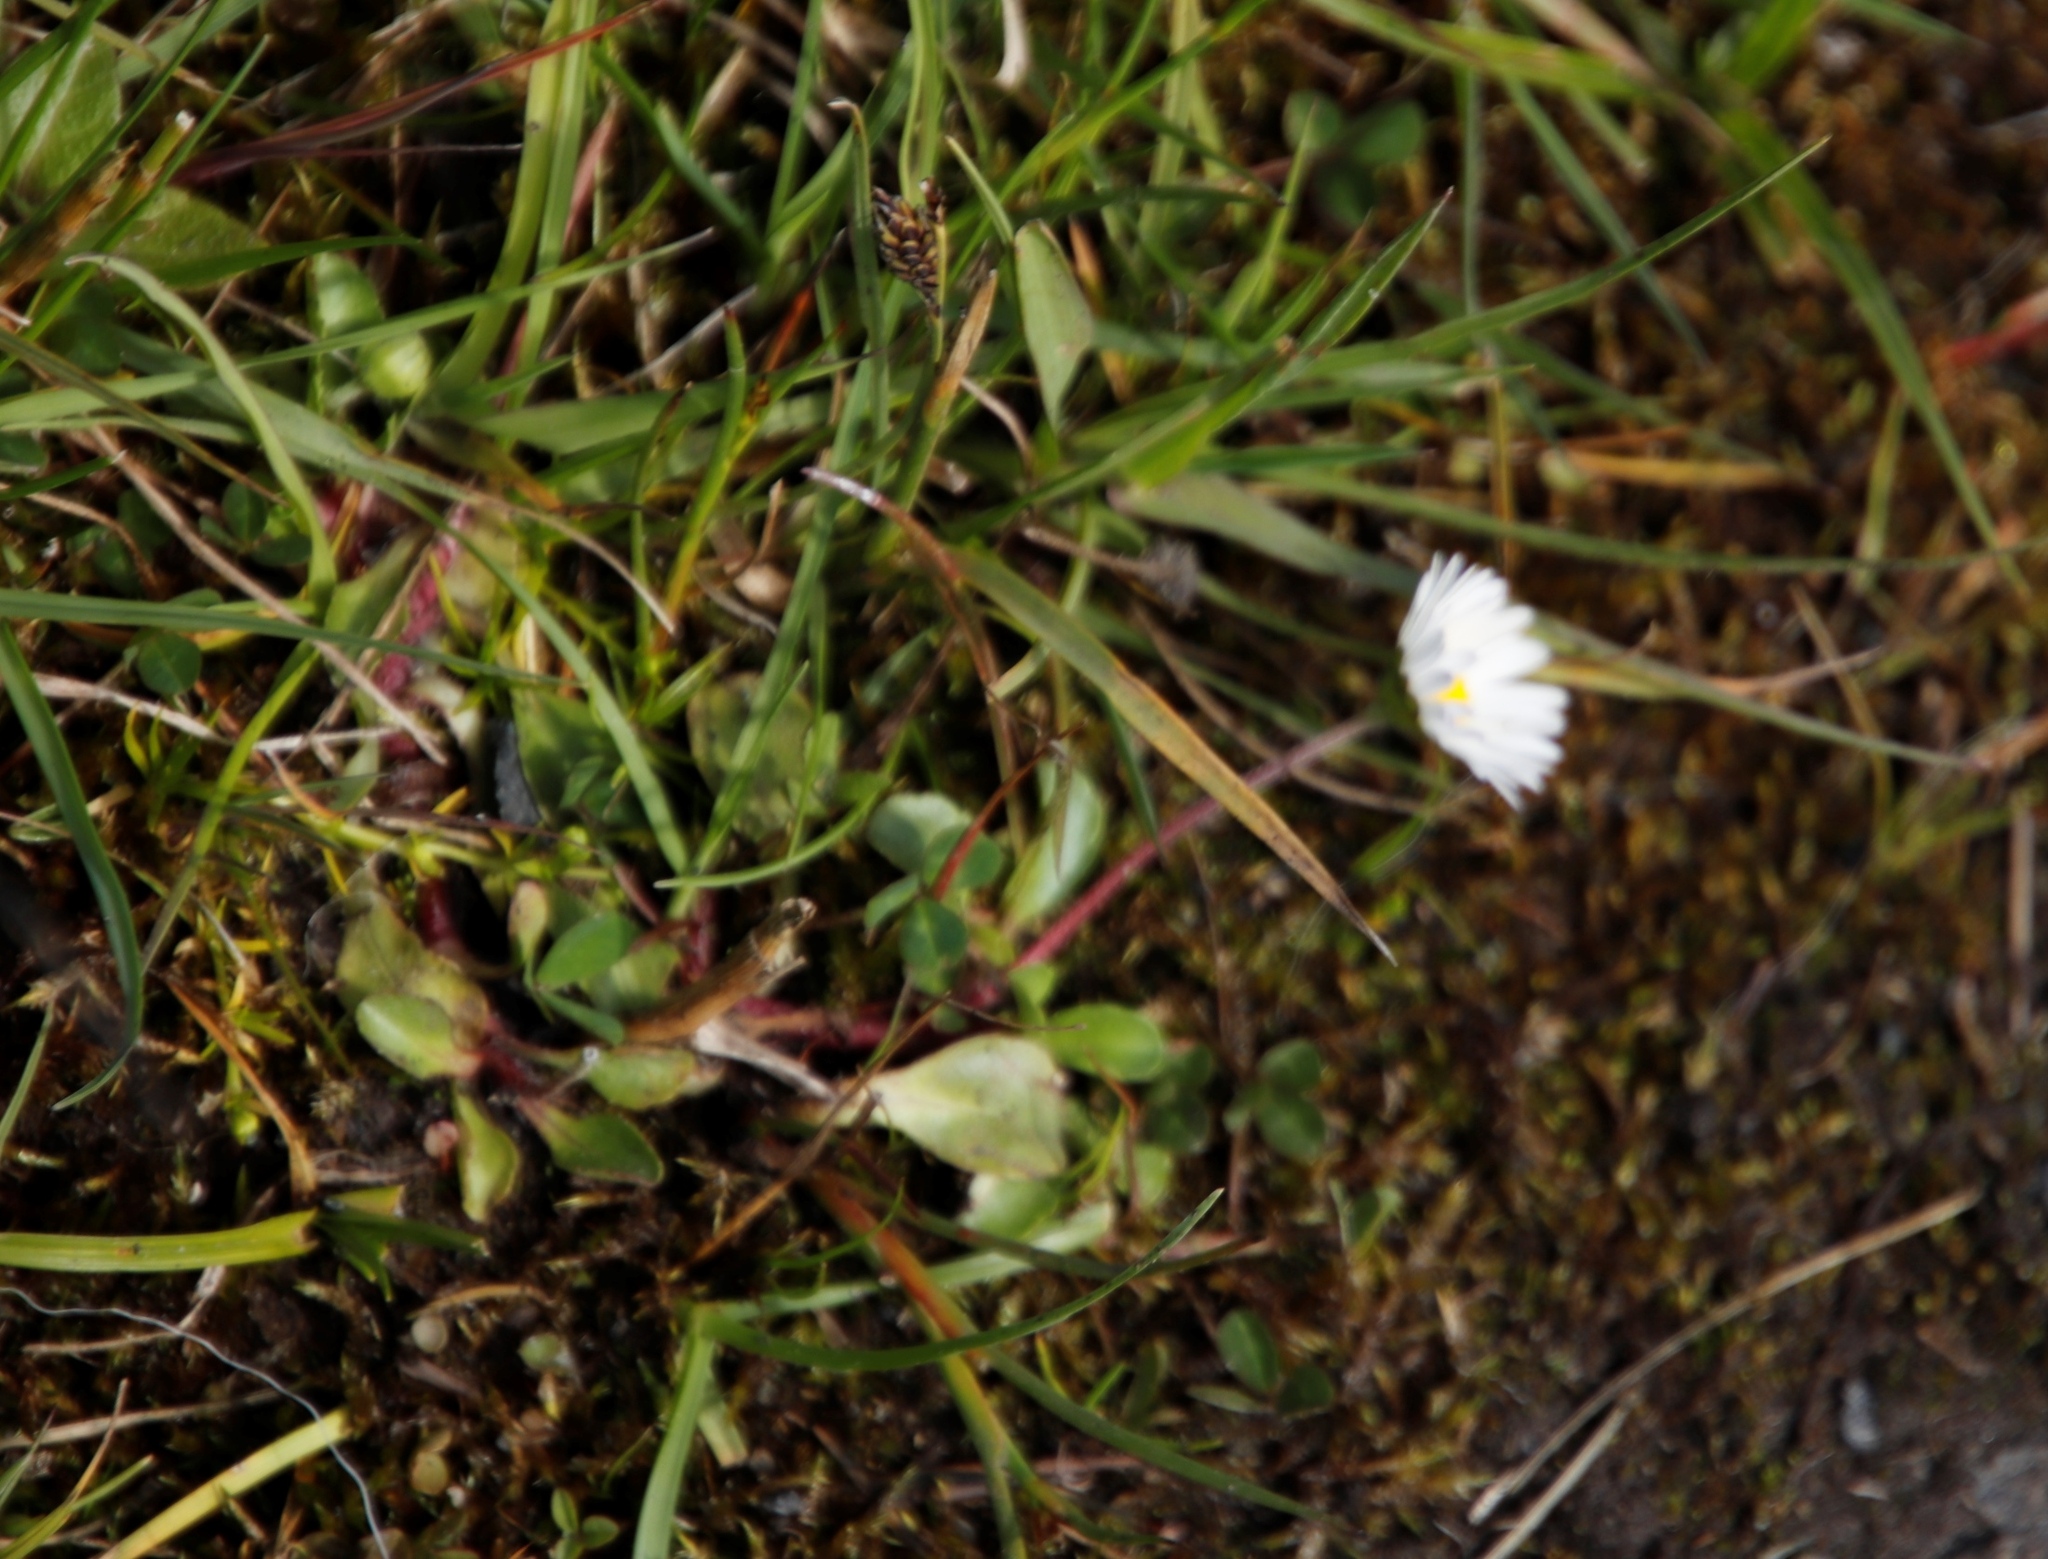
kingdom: Plantae
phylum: Tracheophyta
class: Magnoliopsida
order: Asterales
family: Asteraceae
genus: Bellis
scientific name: Bellis perennis
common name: Lawndaisy
